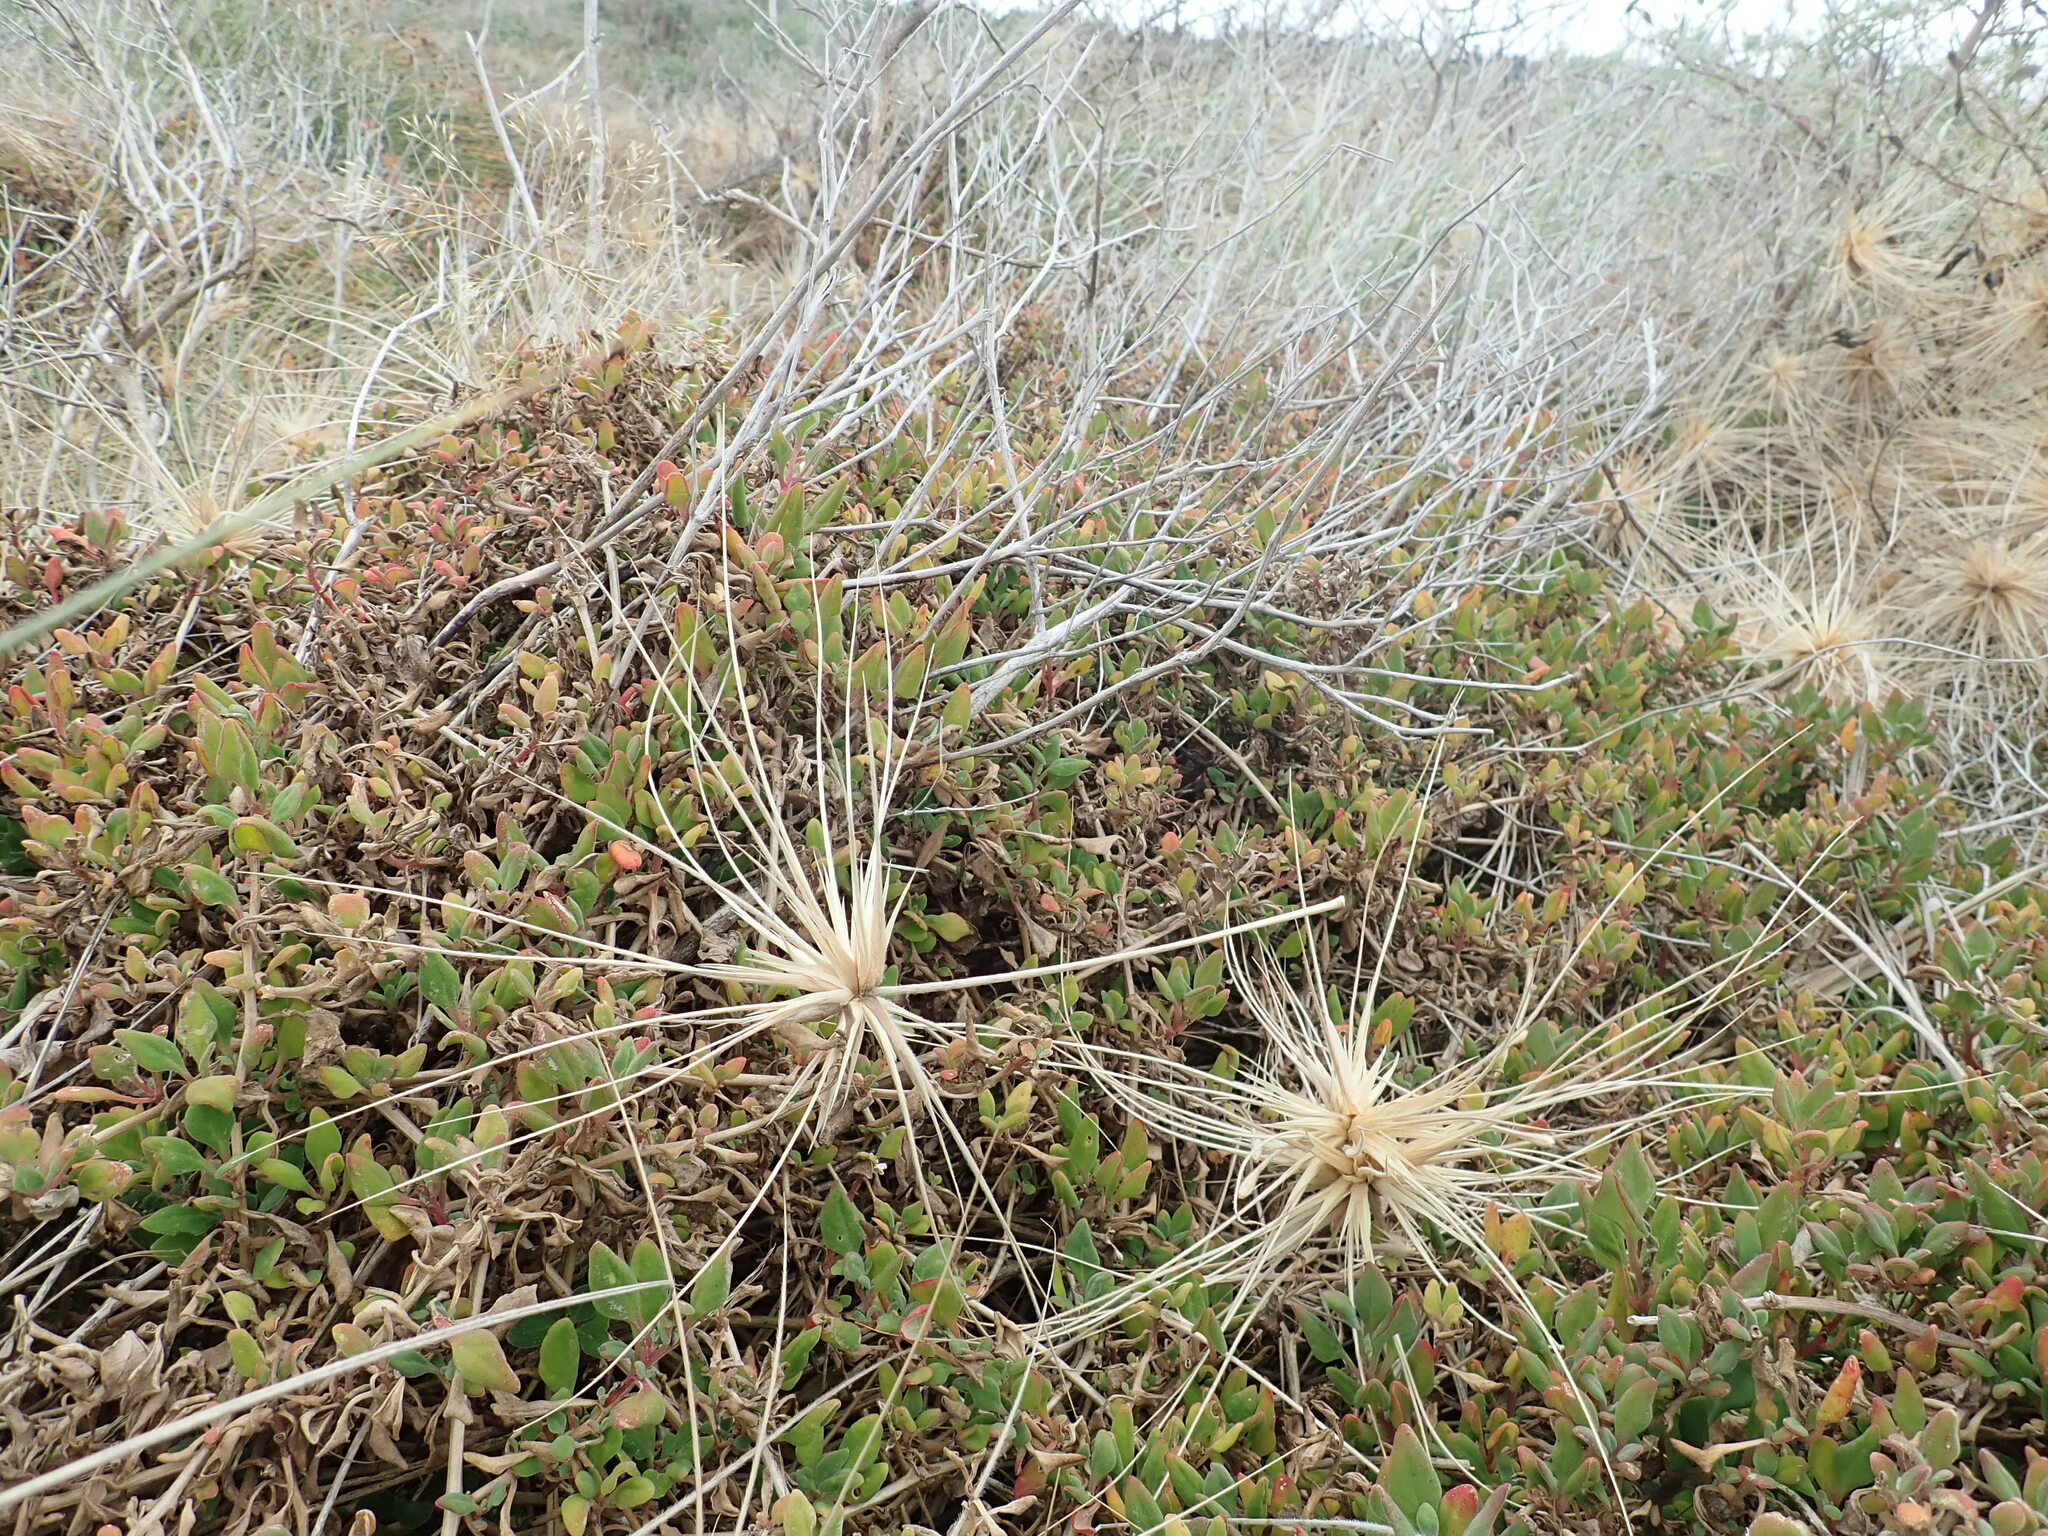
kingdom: Plantae
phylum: Tracheophyta
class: Magnoliopsida
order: Caryophyllales
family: Aizoaceae
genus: Tetragonia
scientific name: Tetragonia implexicoma
